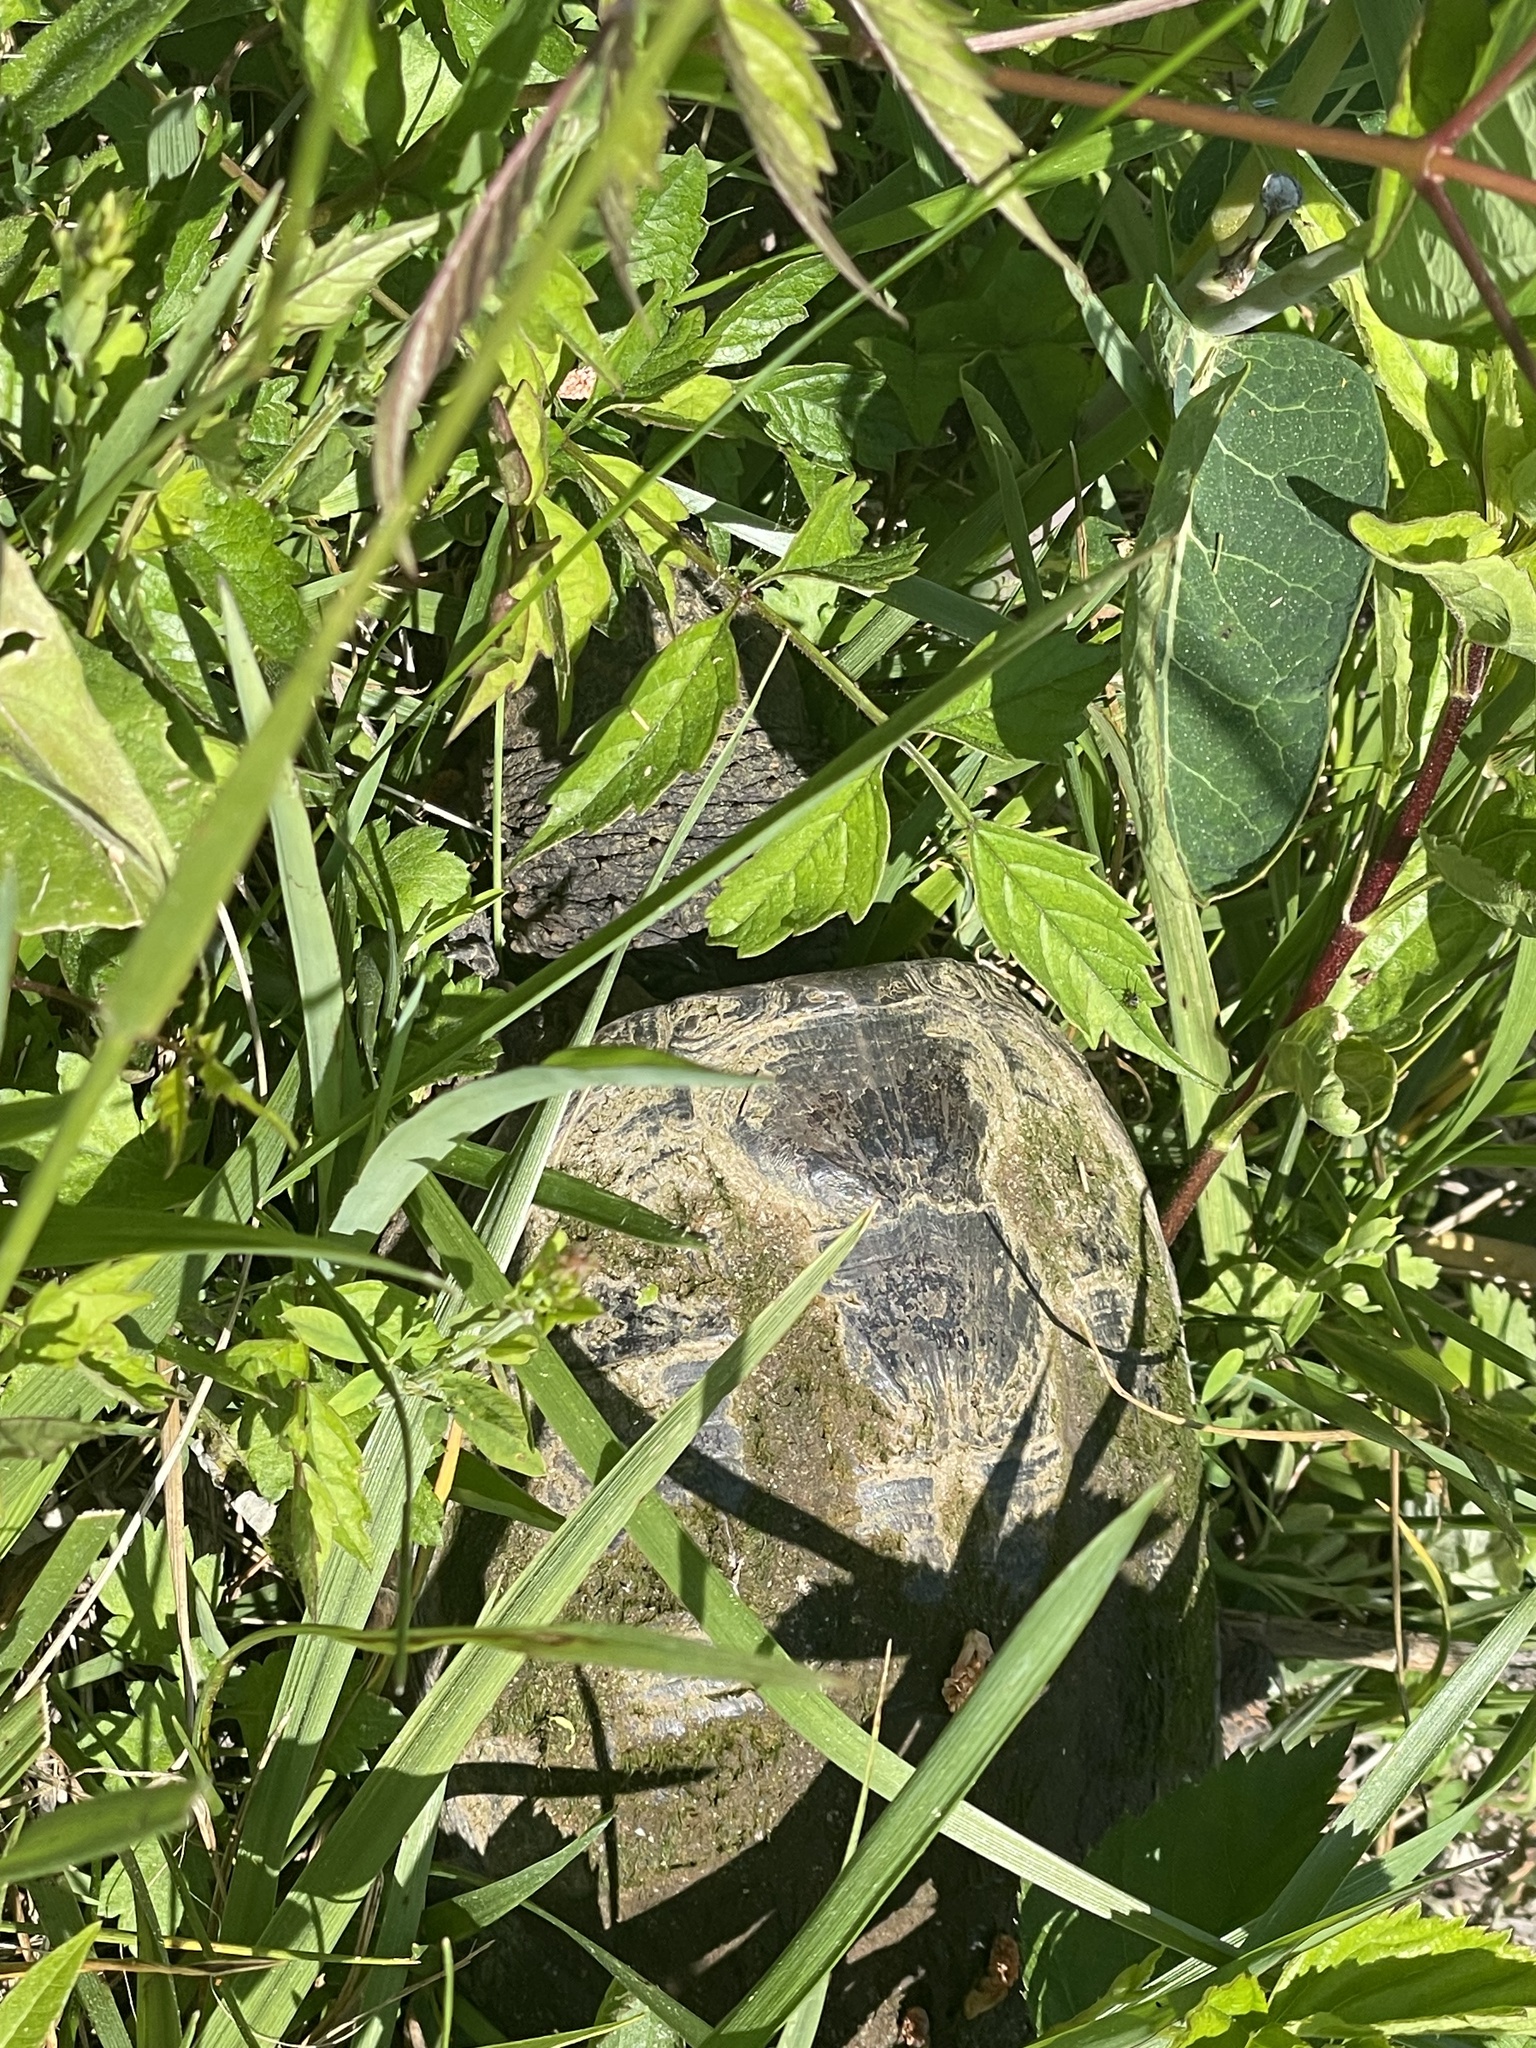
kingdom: Animalia
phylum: Chordata
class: Testudines
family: Chelydridae
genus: Chelydra
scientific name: Chelydra serpentina
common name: Common snapping turtle
